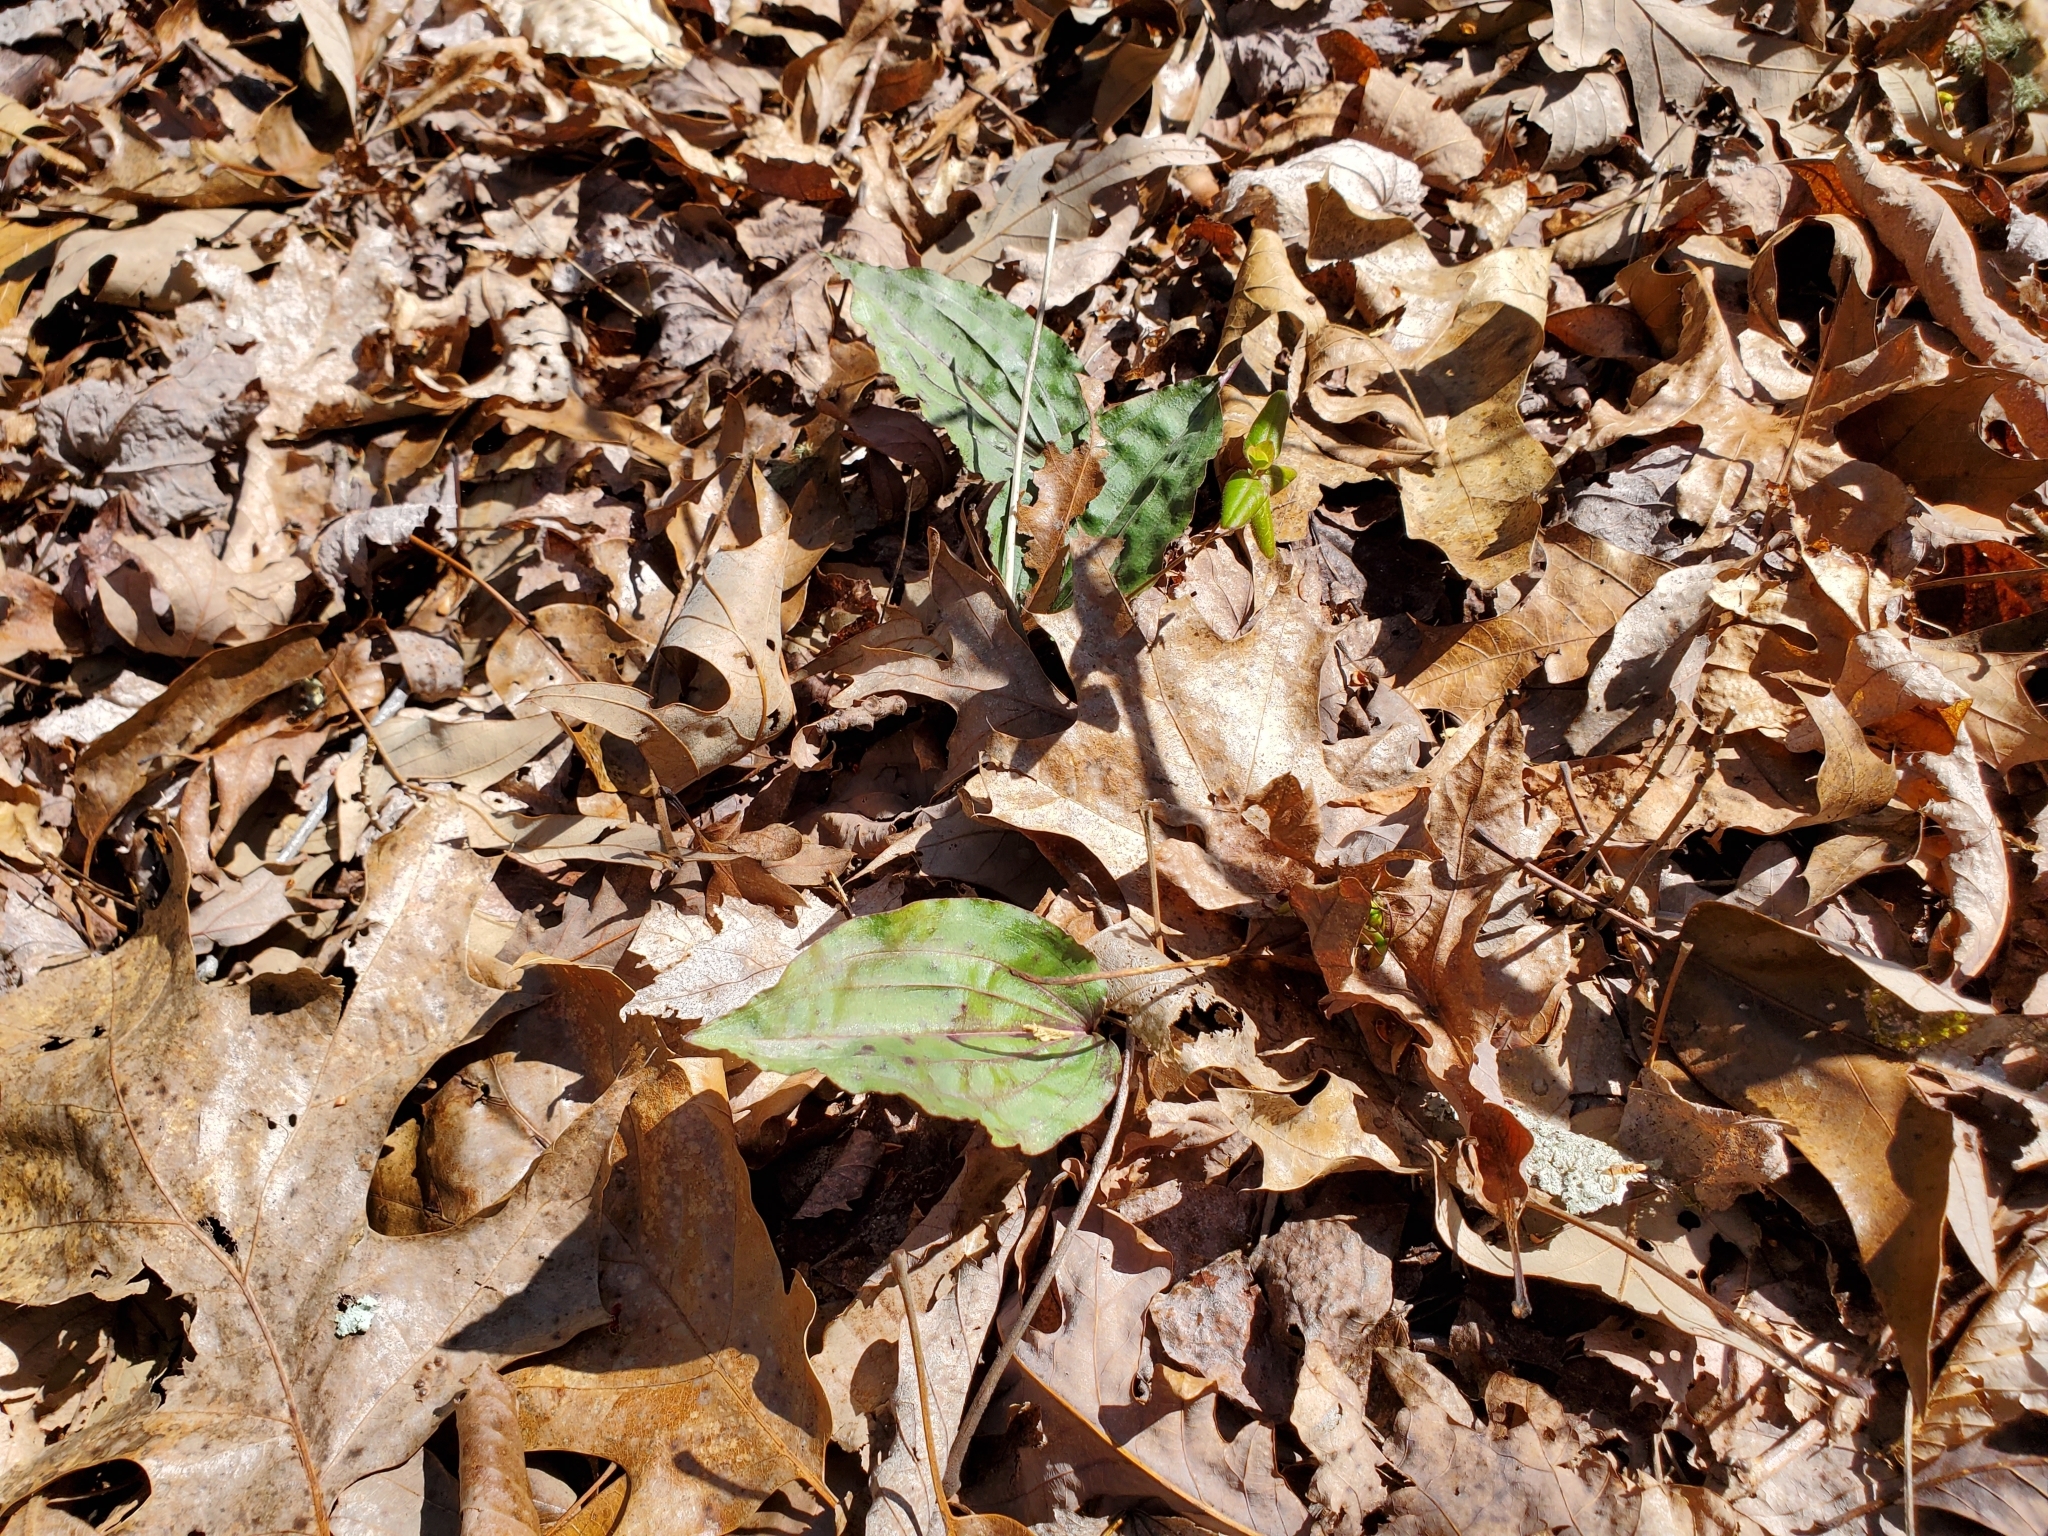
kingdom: Plantae
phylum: Tracheophyta
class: Liliopsida
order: Asparagales
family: Orchidaceae
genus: Tipularia
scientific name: Tipularia discolor
